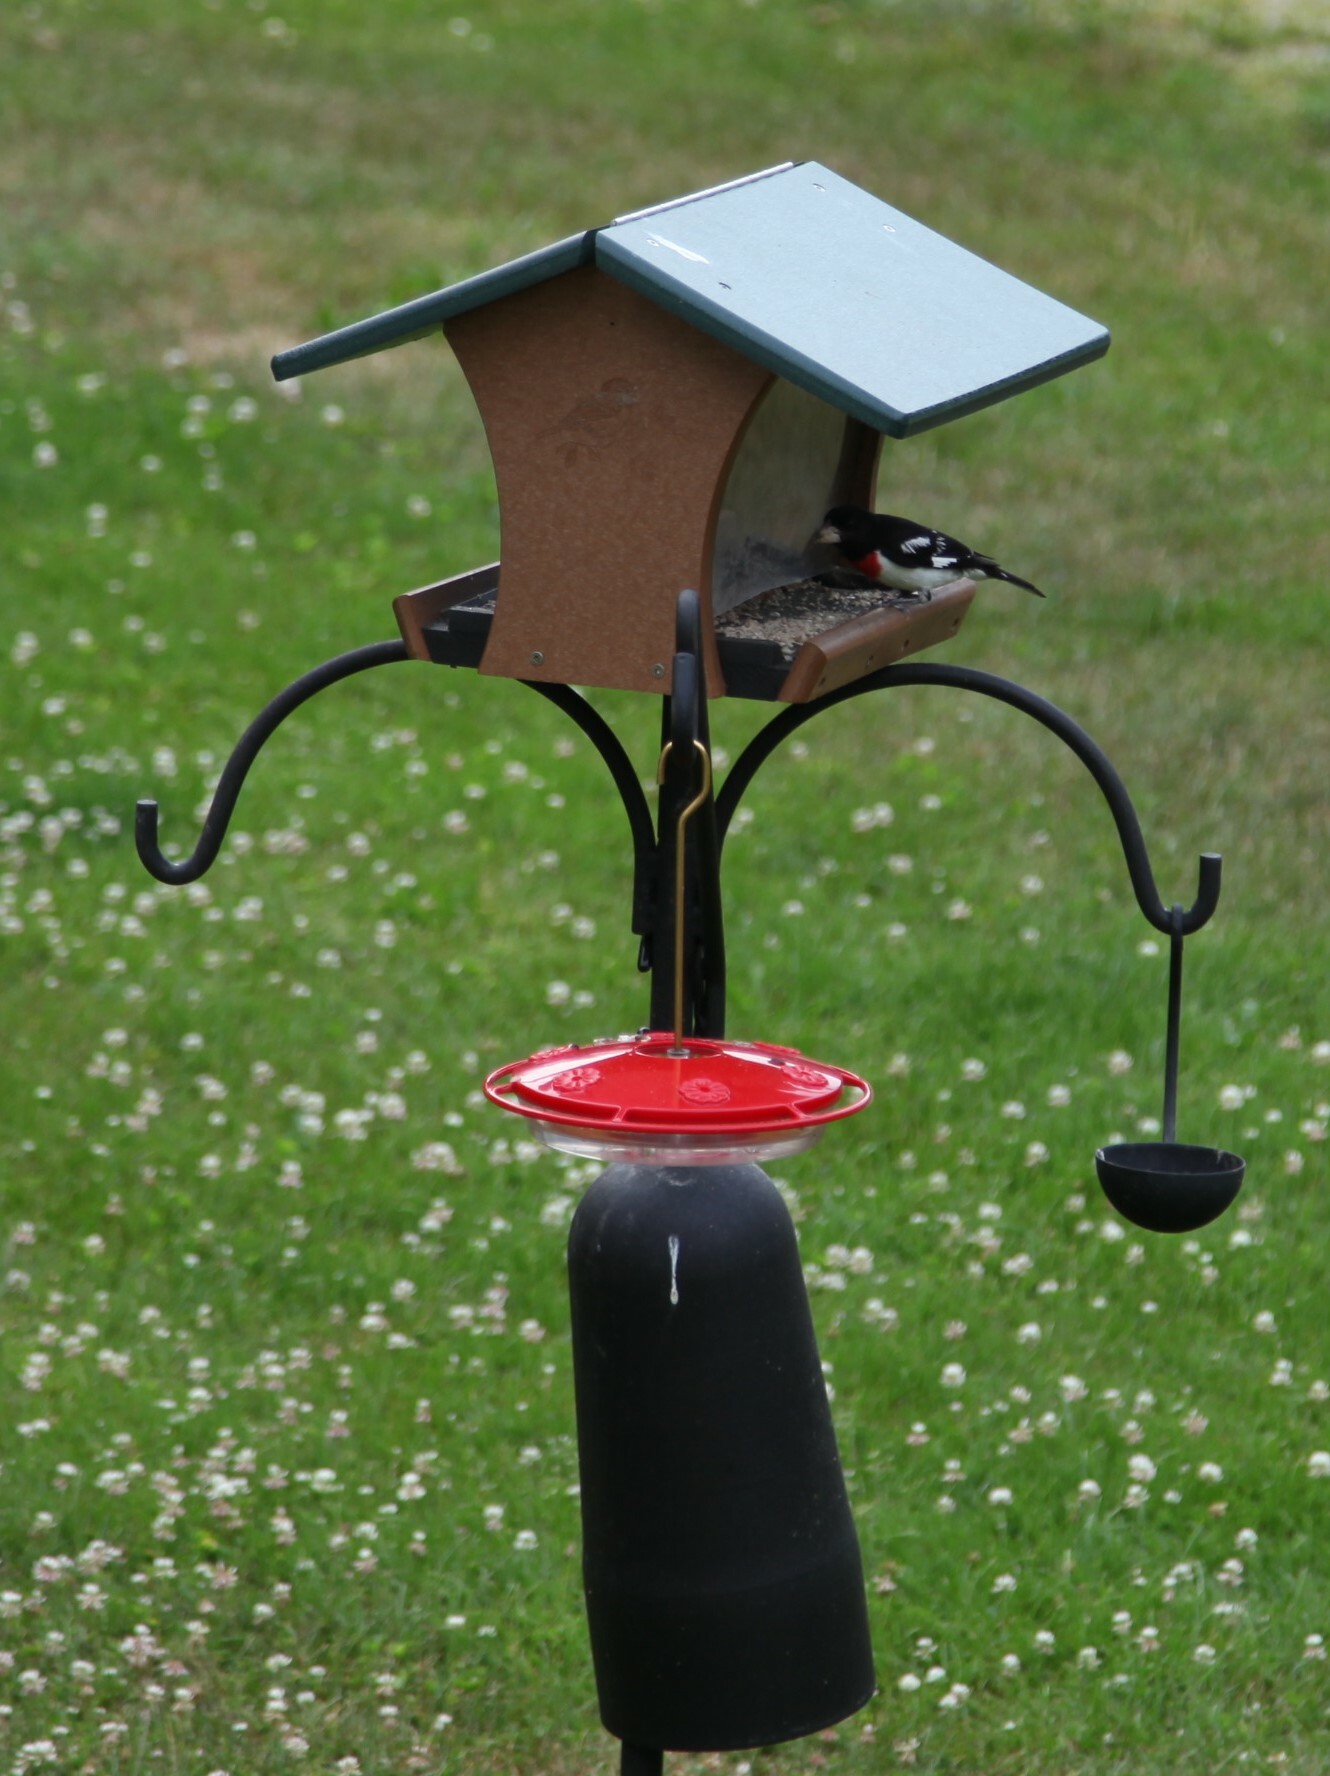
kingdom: Animalia
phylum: Chordata
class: Aves
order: Passeriformes
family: Cardinalidae
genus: Pheucticus
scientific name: Pheucticus ludovicianus
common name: Rose-breasted grosbeak
